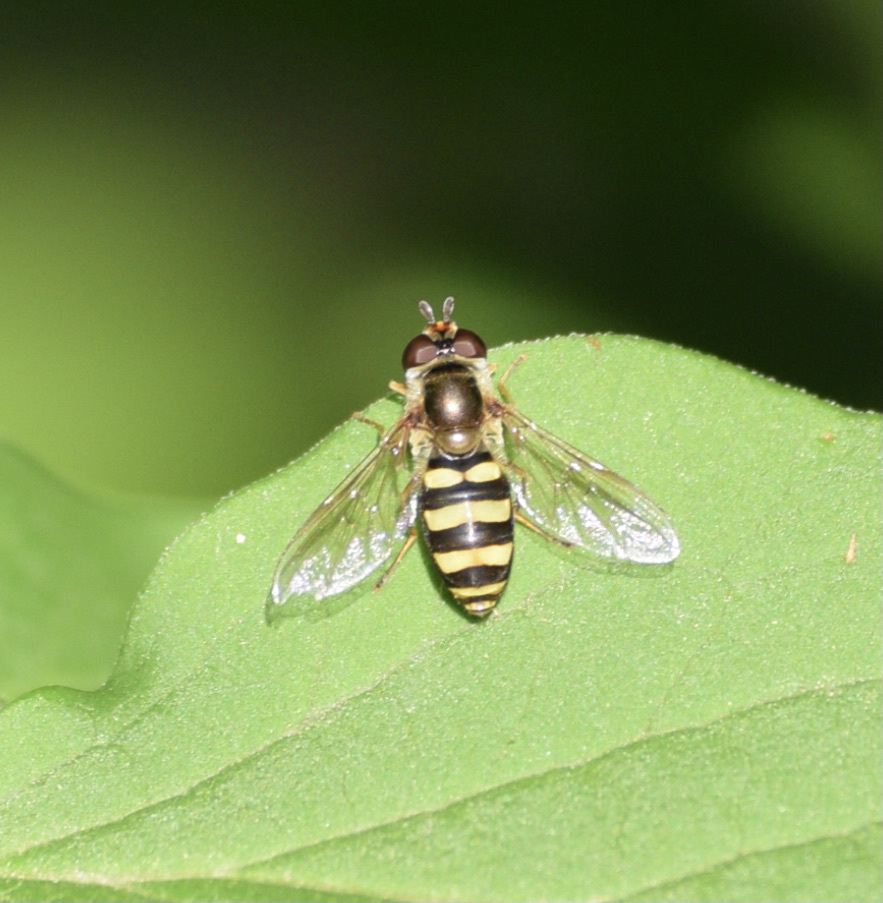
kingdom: Animalia
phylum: Arthropoda
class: Insecta
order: Diptera
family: Syrphidae
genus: Eupeodes
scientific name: Eupeodes
